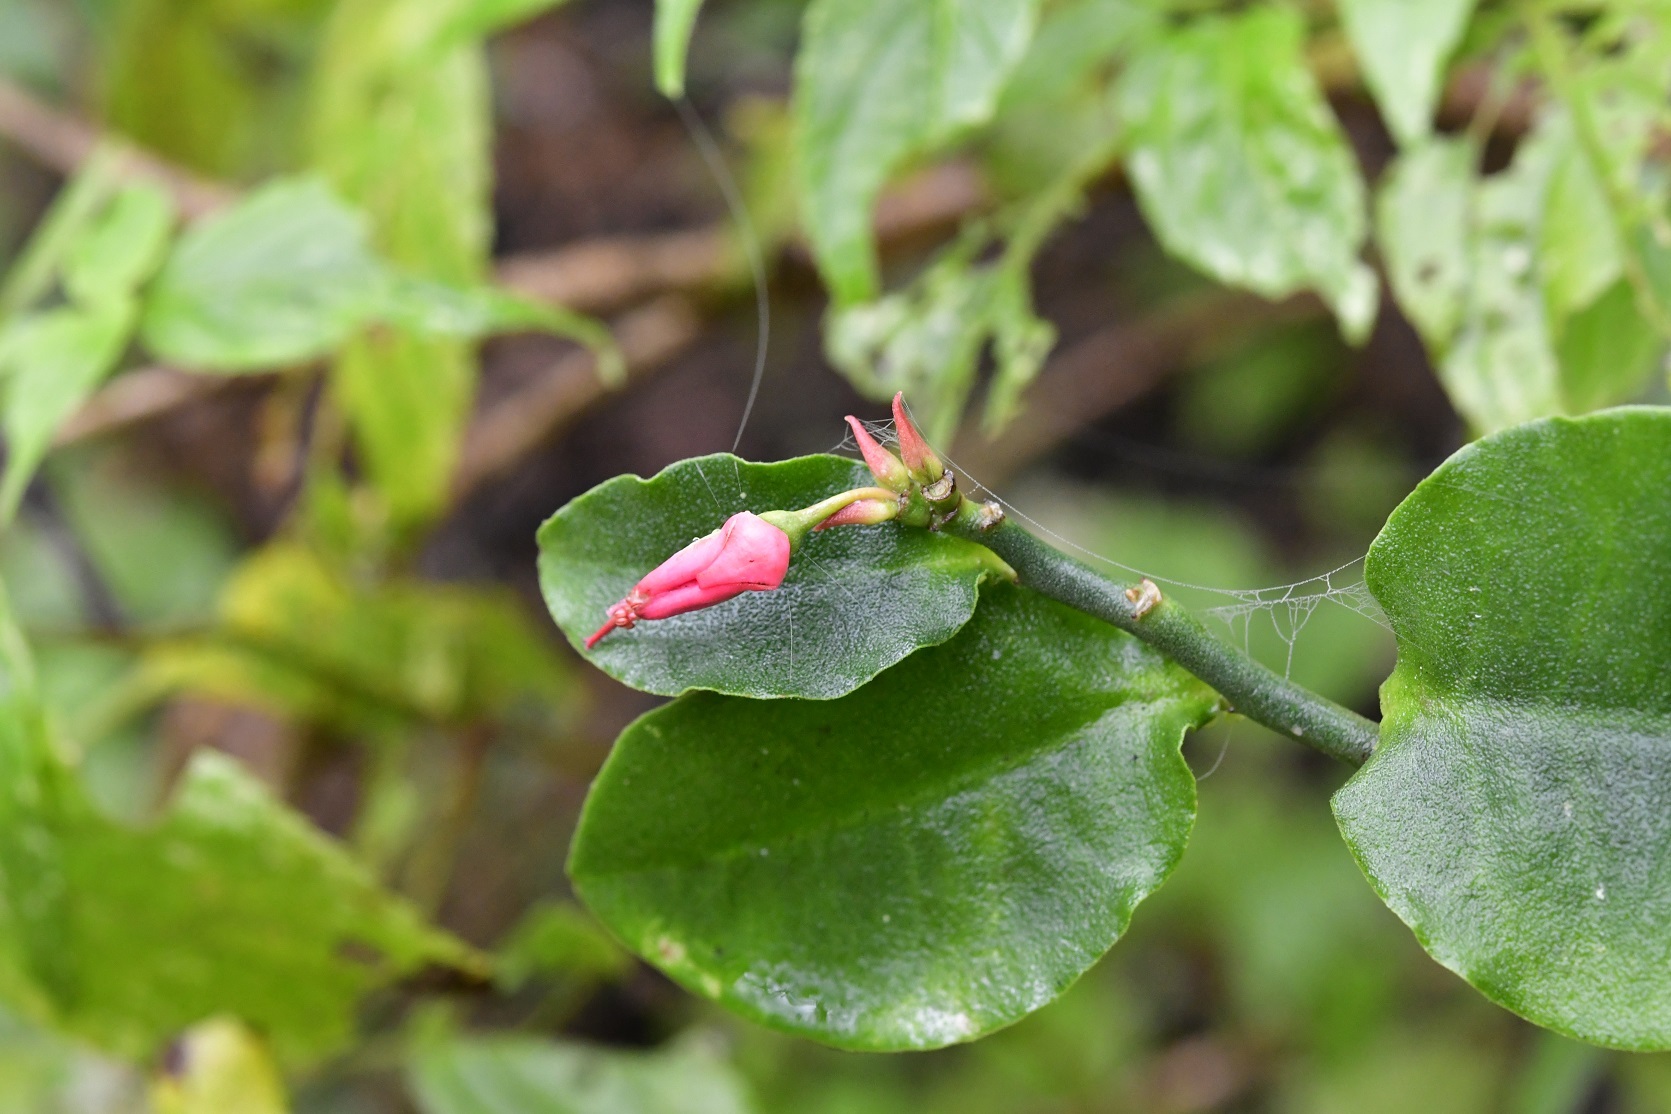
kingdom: Plantae
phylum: Tracheophyta
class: Magnoliopsida
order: Malpighiales
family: Euphorbiaceae
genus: Euphorbia
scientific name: Euphorbia tithymaloides
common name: Slipperplant
